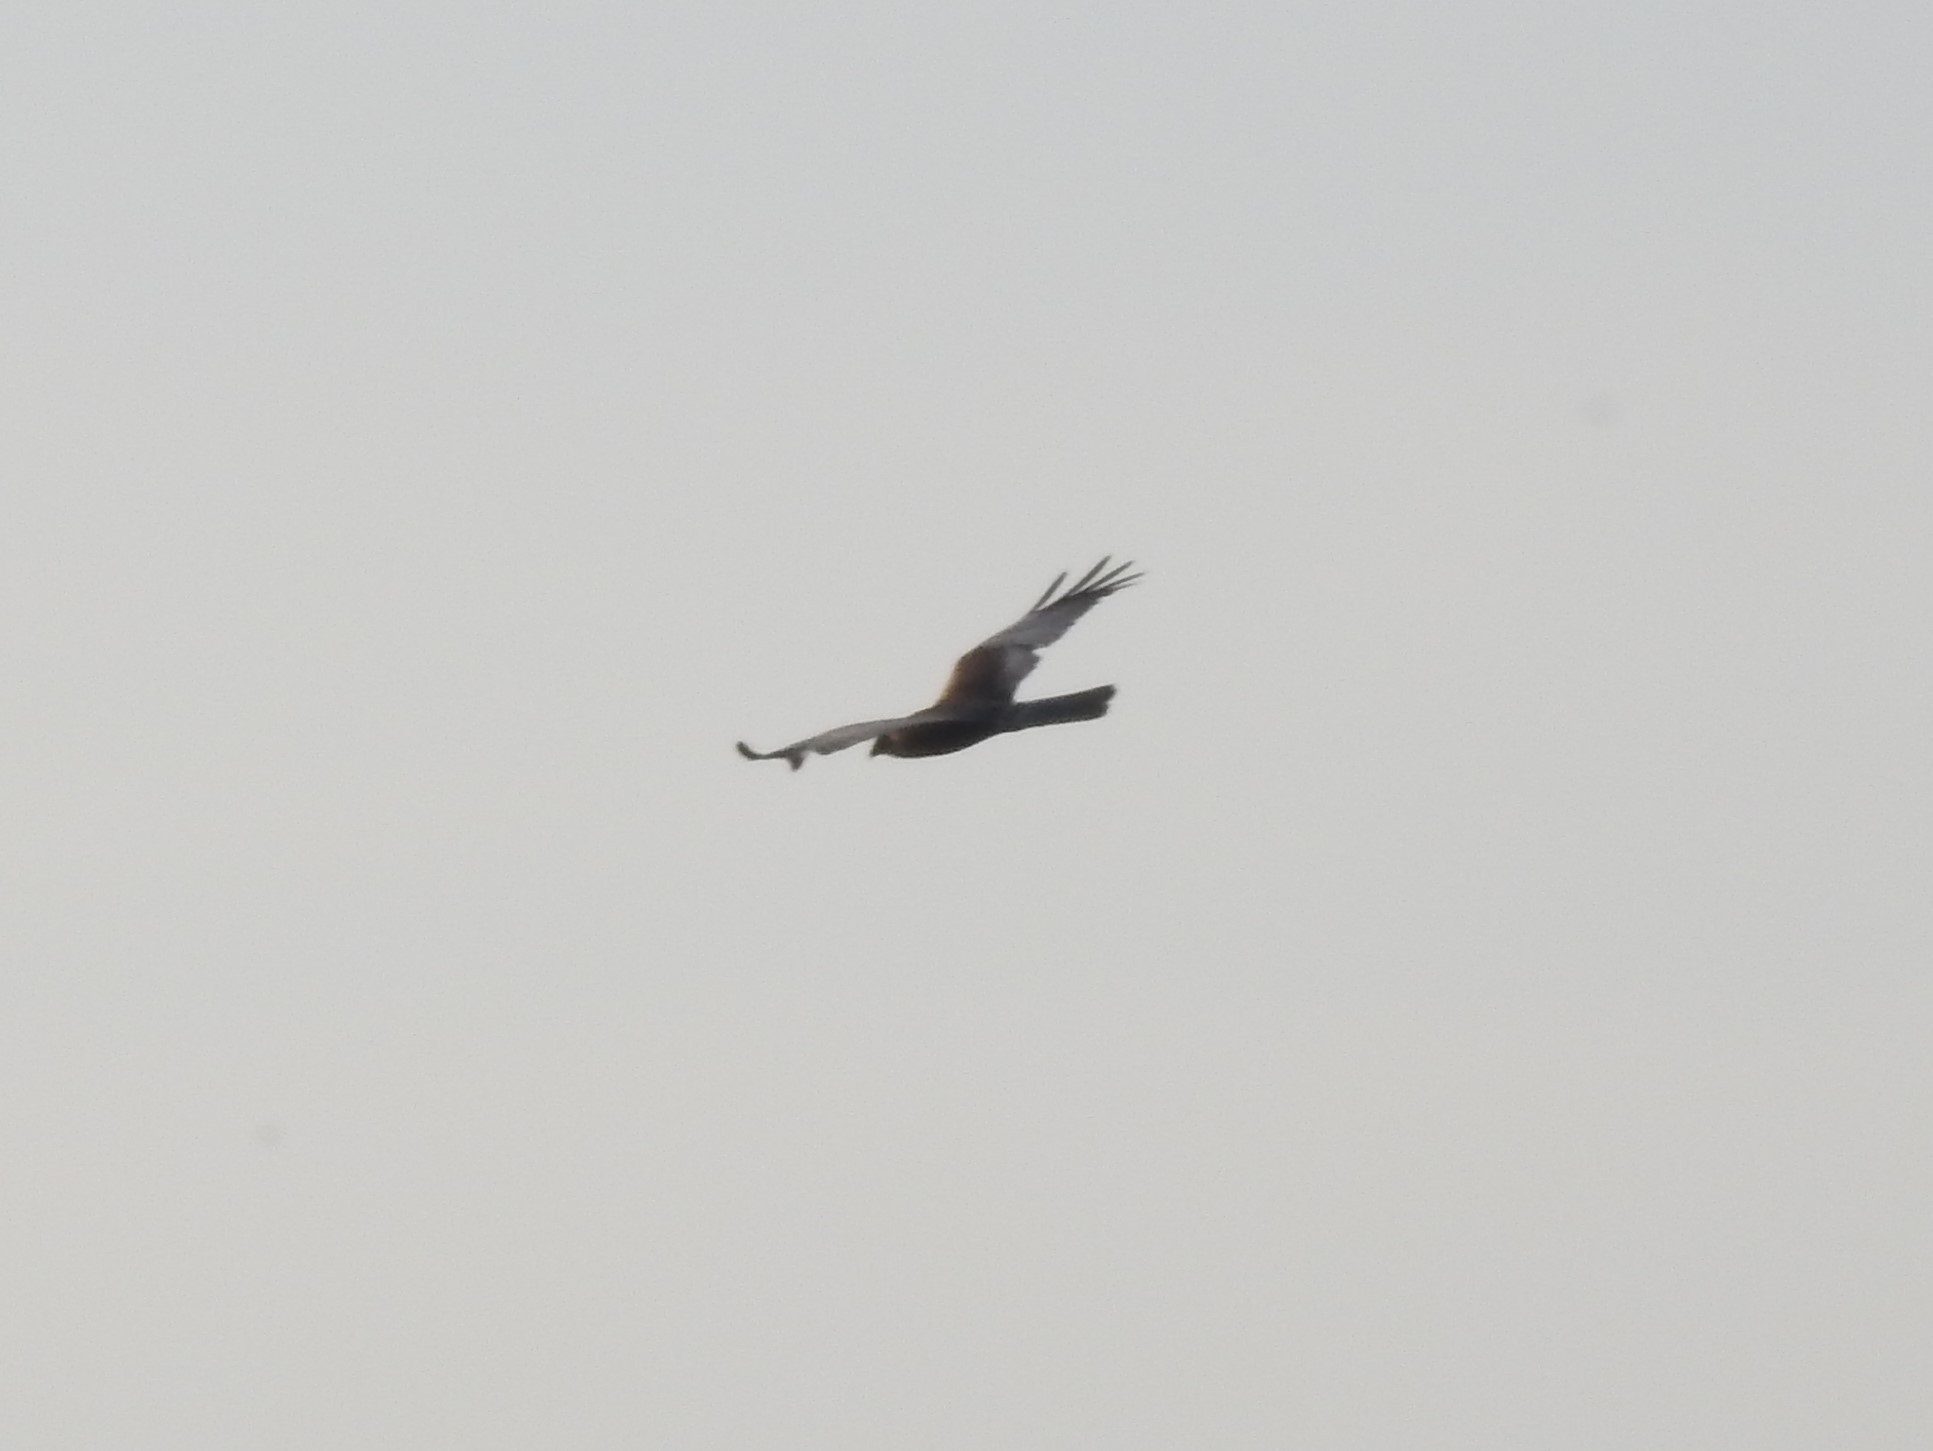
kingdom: Animalia
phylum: Chordata
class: Aves
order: Accipitriformes
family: Accipitridae
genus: Circus
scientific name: Circus aeruginosus
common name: Western marsh harrier
